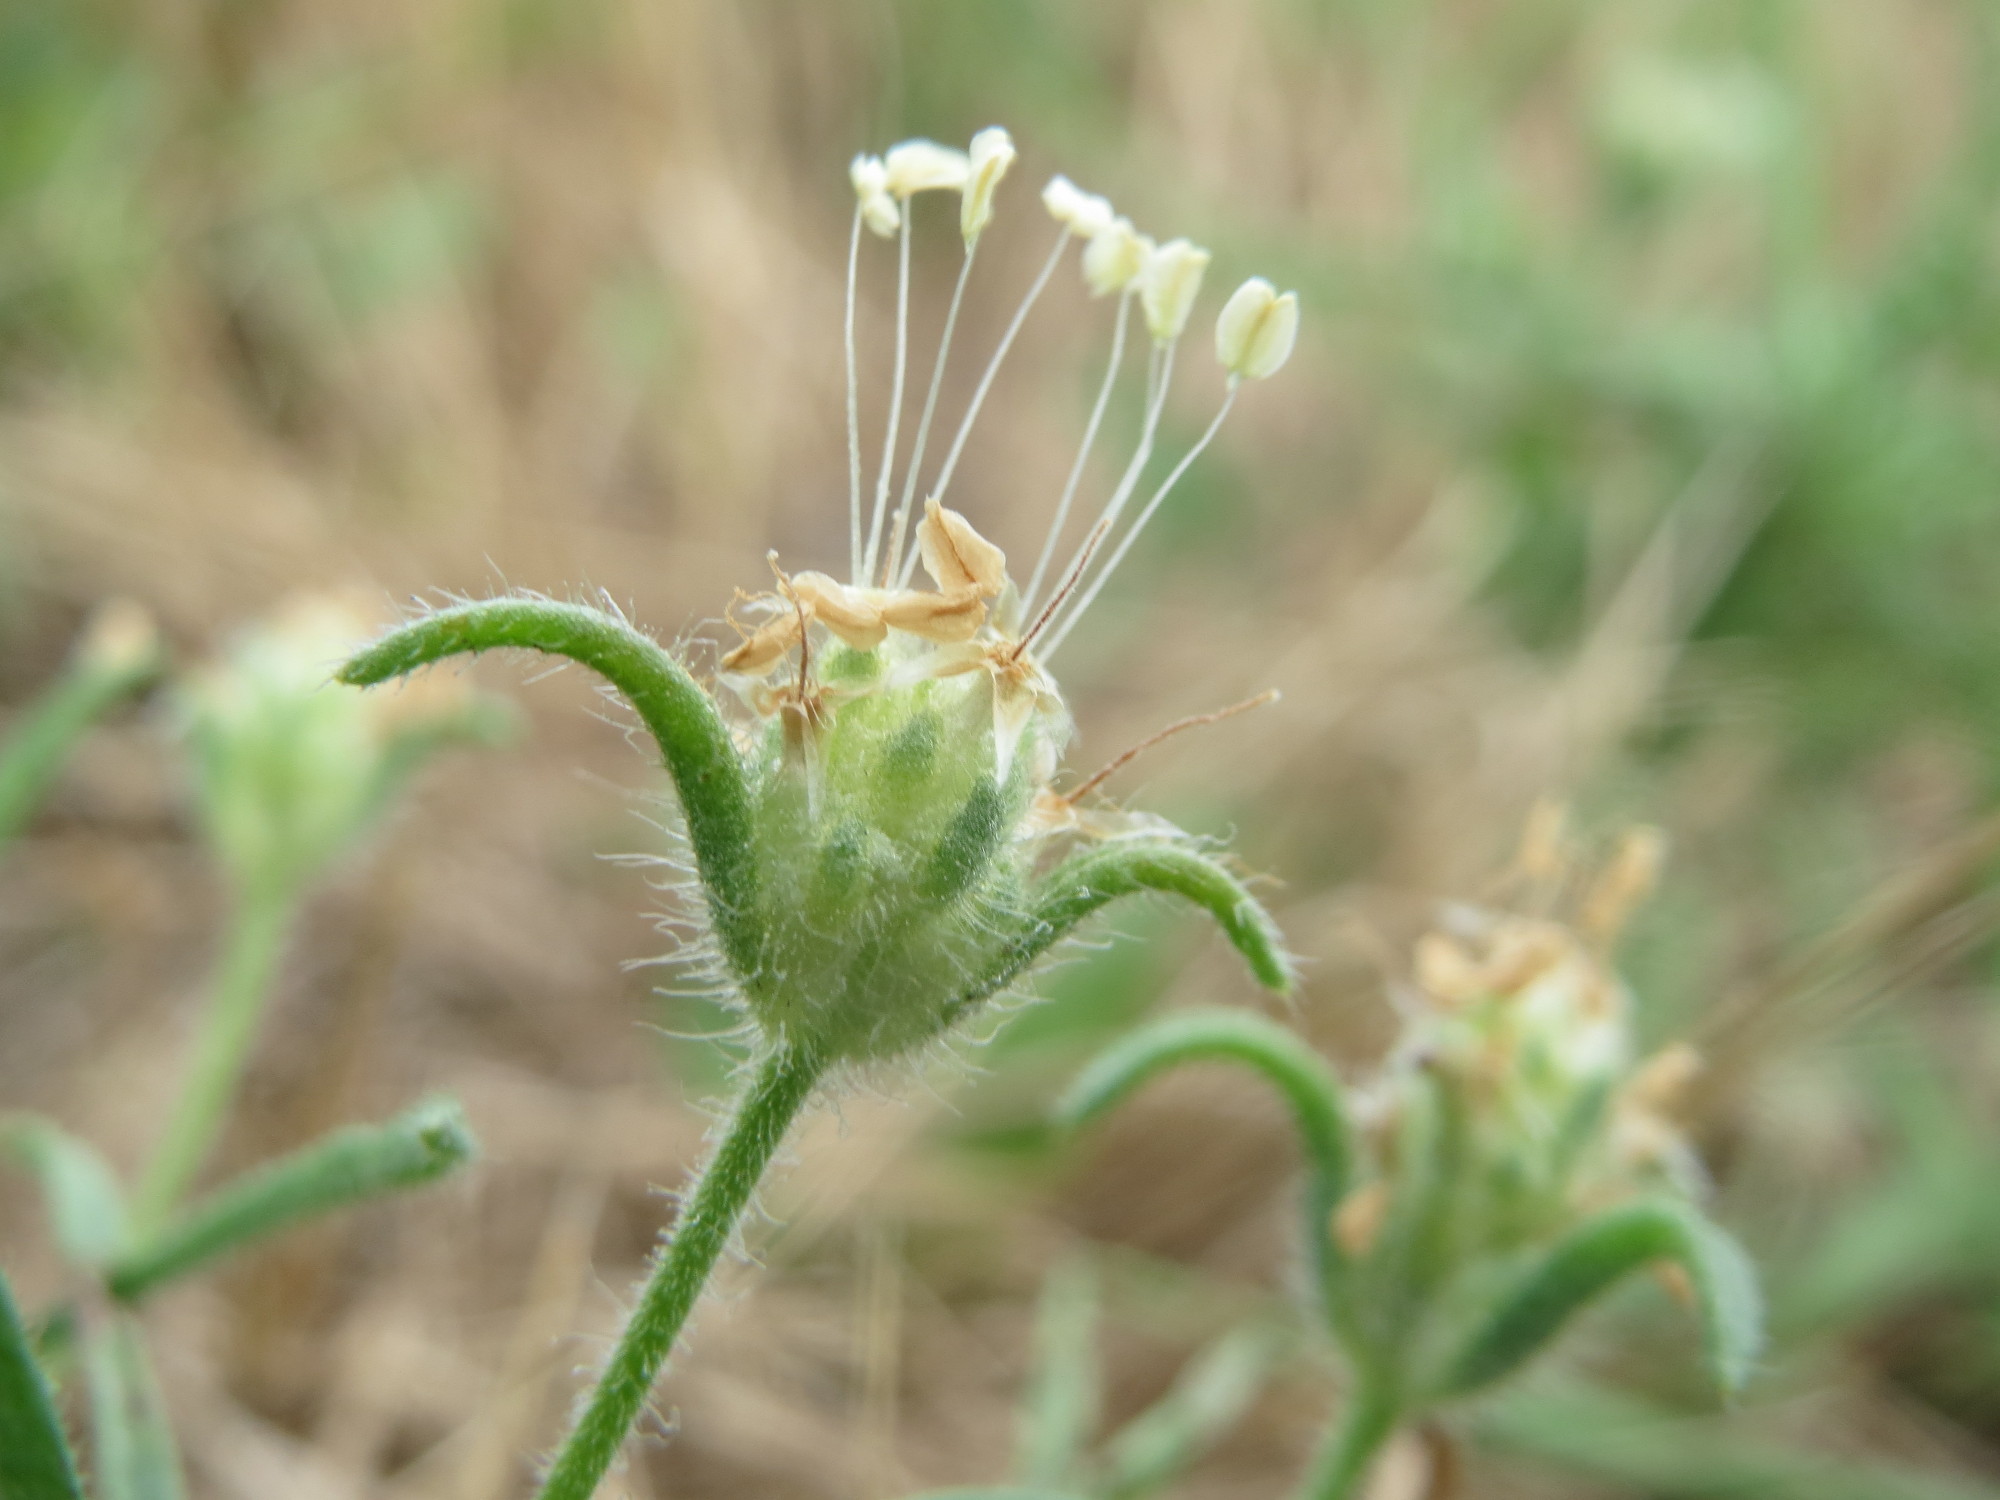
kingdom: Plantae
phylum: Tracheophyta
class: Magnoliopsida
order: Lamiales
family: Plantaginaceae
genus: Plantago
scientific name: Plantago arenaria
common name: Branched plantain
